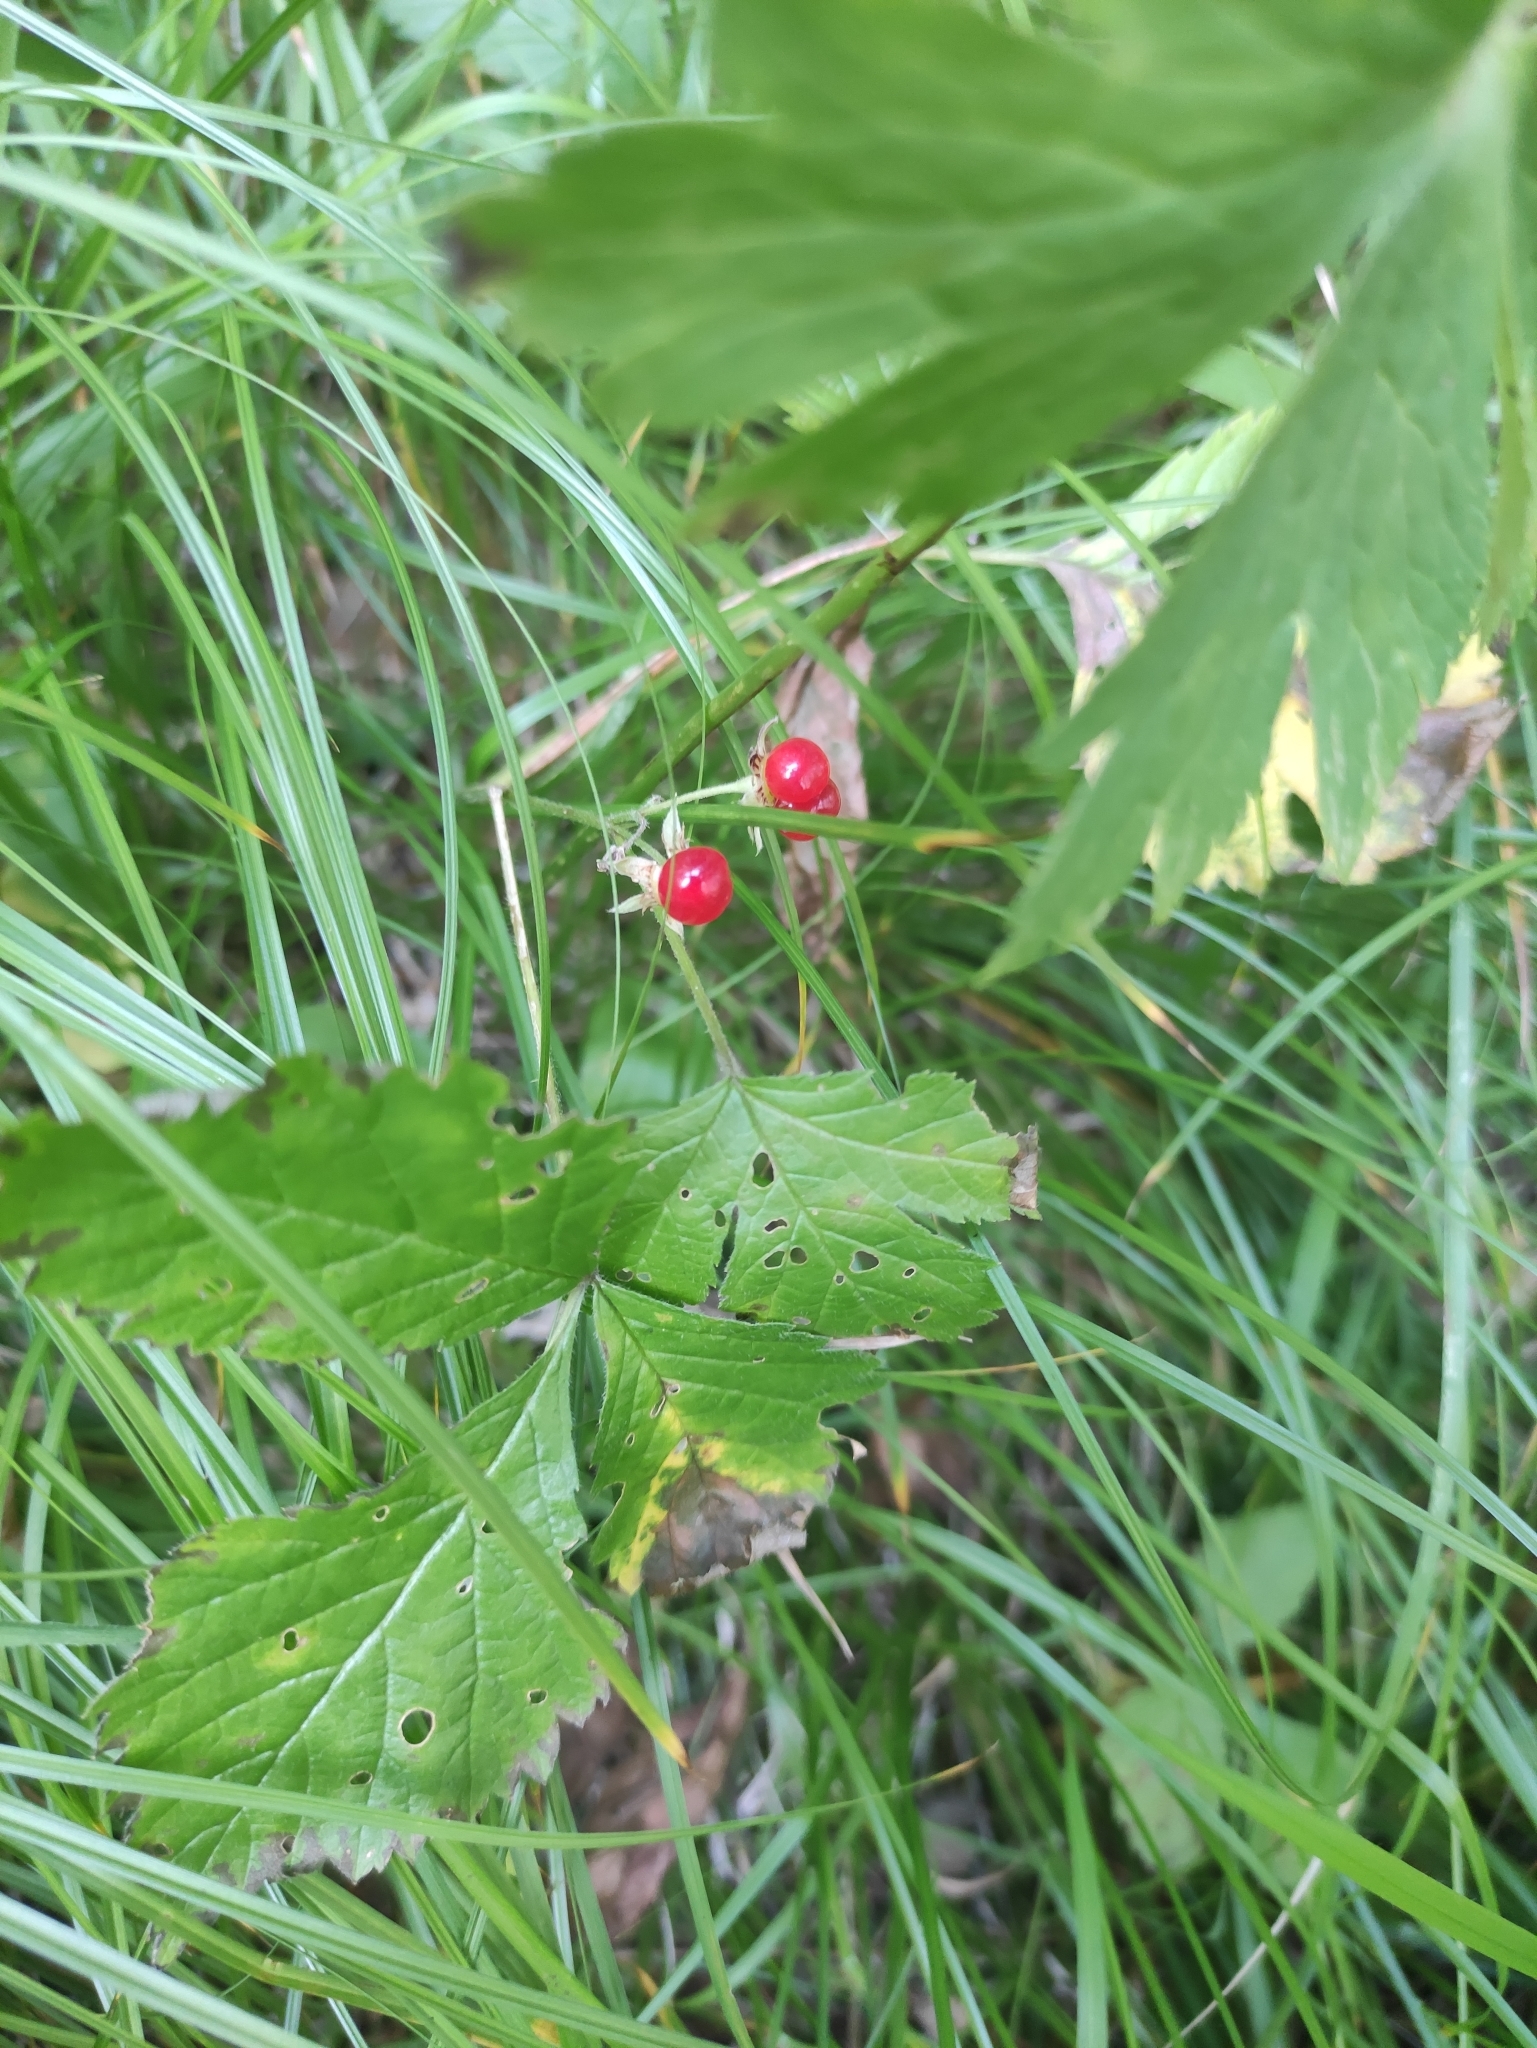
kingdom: Plantae
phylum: Tracheophyta
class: Magnoliopsida
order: Rosales
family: Rosaceae
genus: Rubus
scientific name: Rubus saxatilis
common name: Stone bramble
